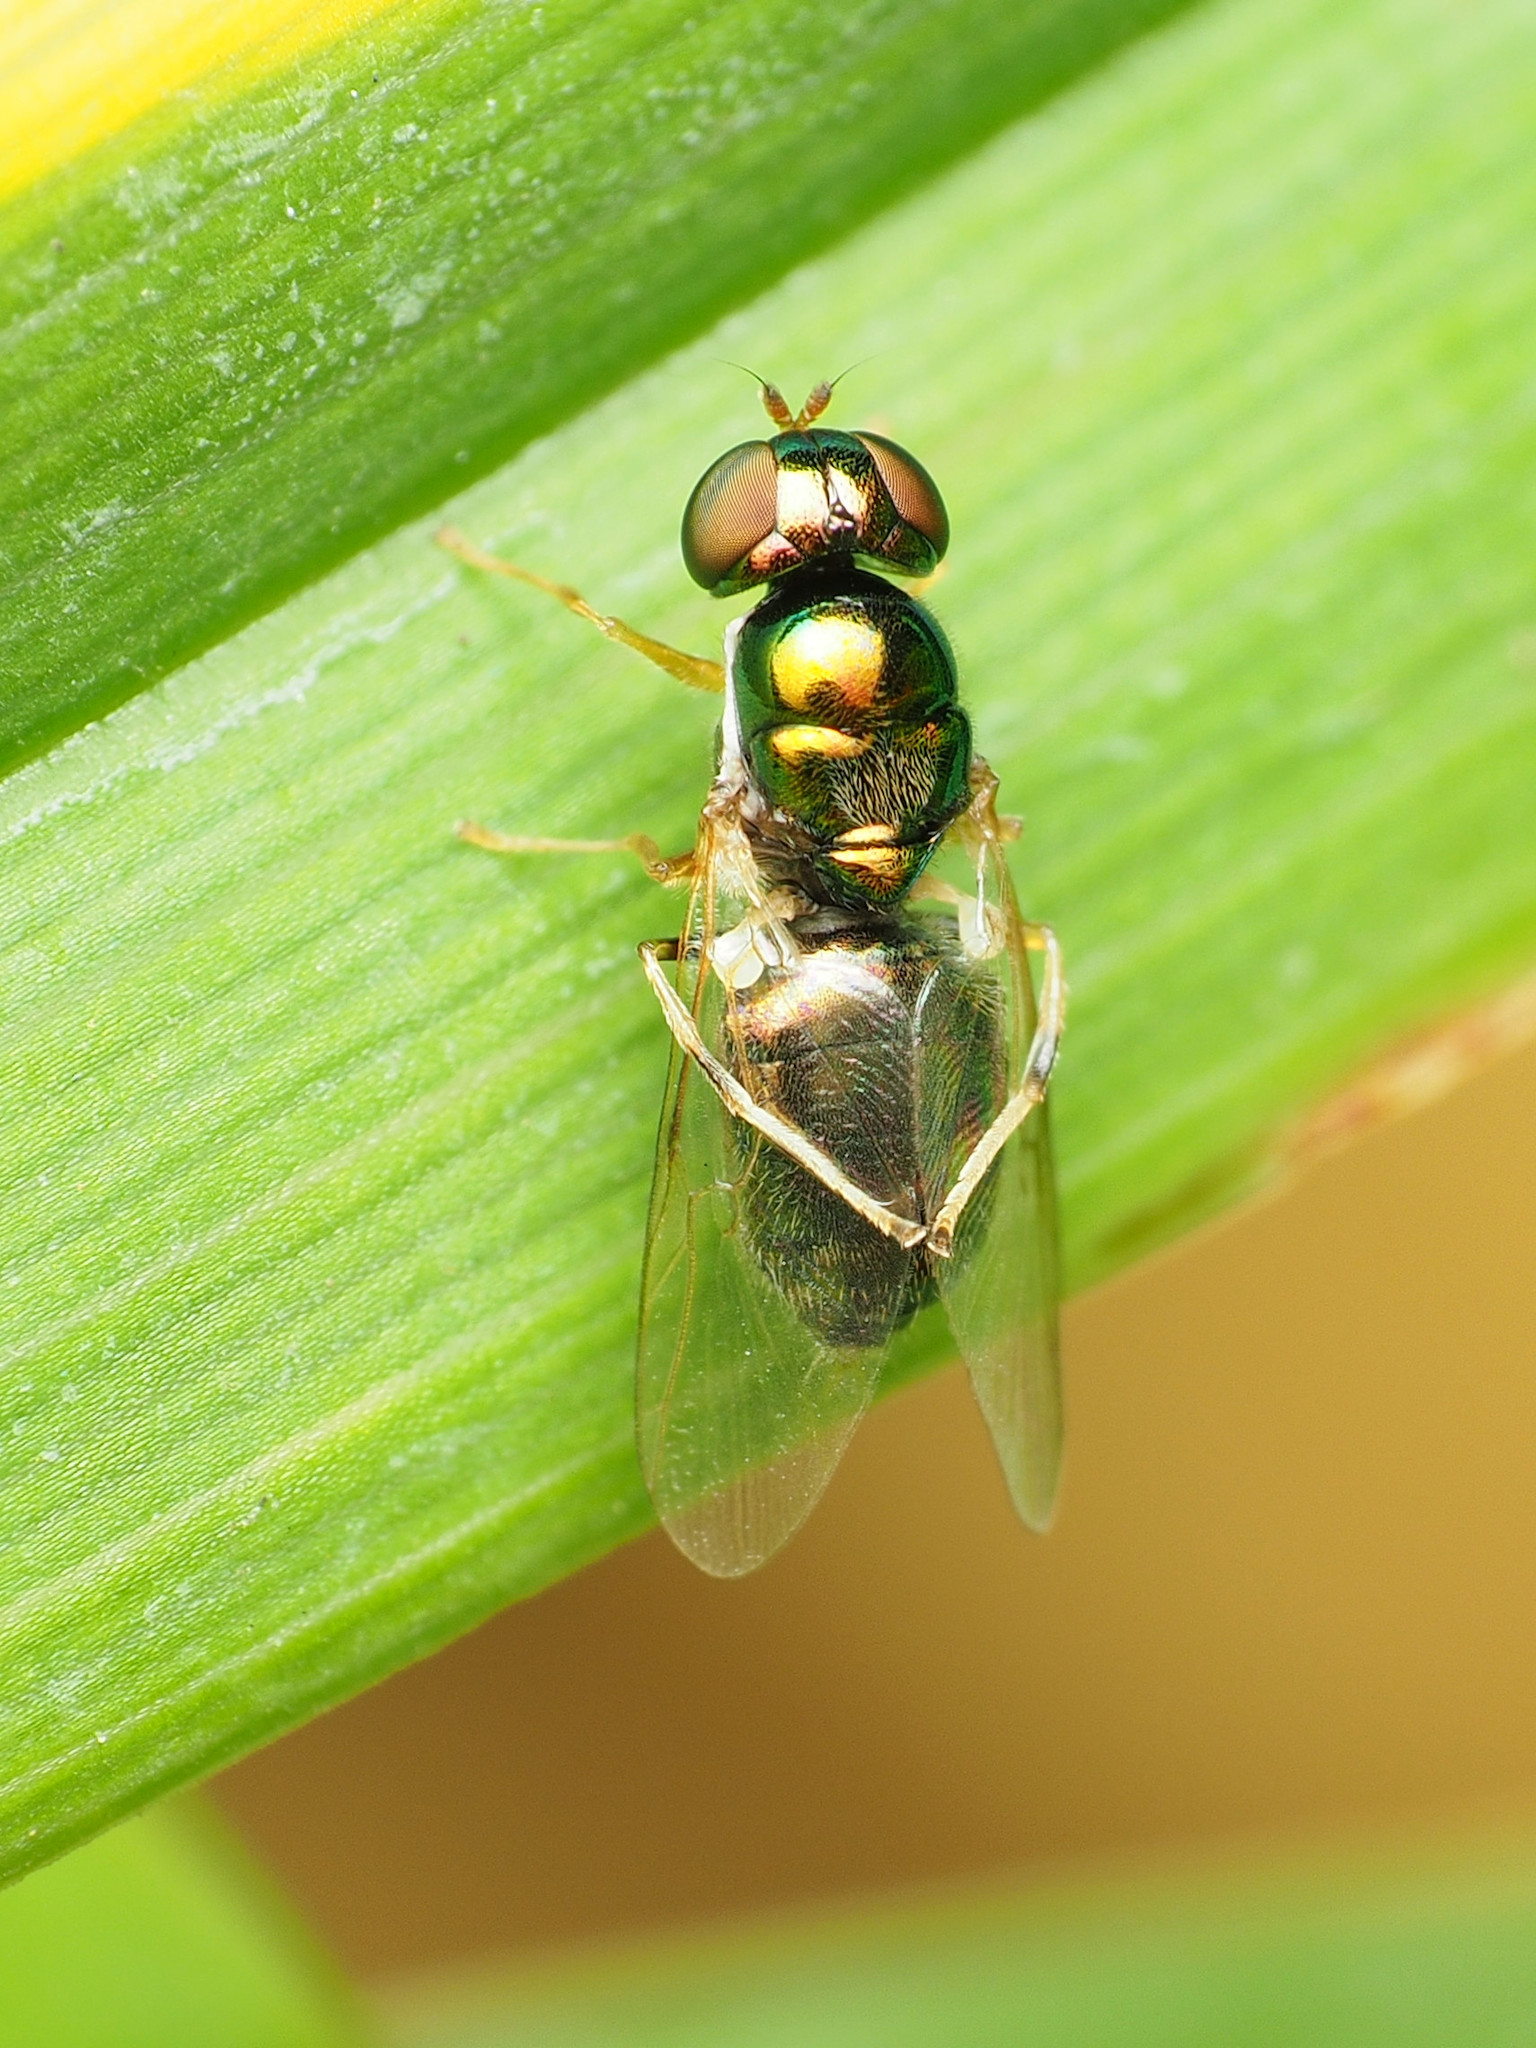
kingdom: Animalia
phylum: Arthropoda
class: Insecta
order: Diptera
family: Stratiomyidae
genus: Microchrysa
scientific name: Microchrysa flaviventris
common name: Soldier fly
